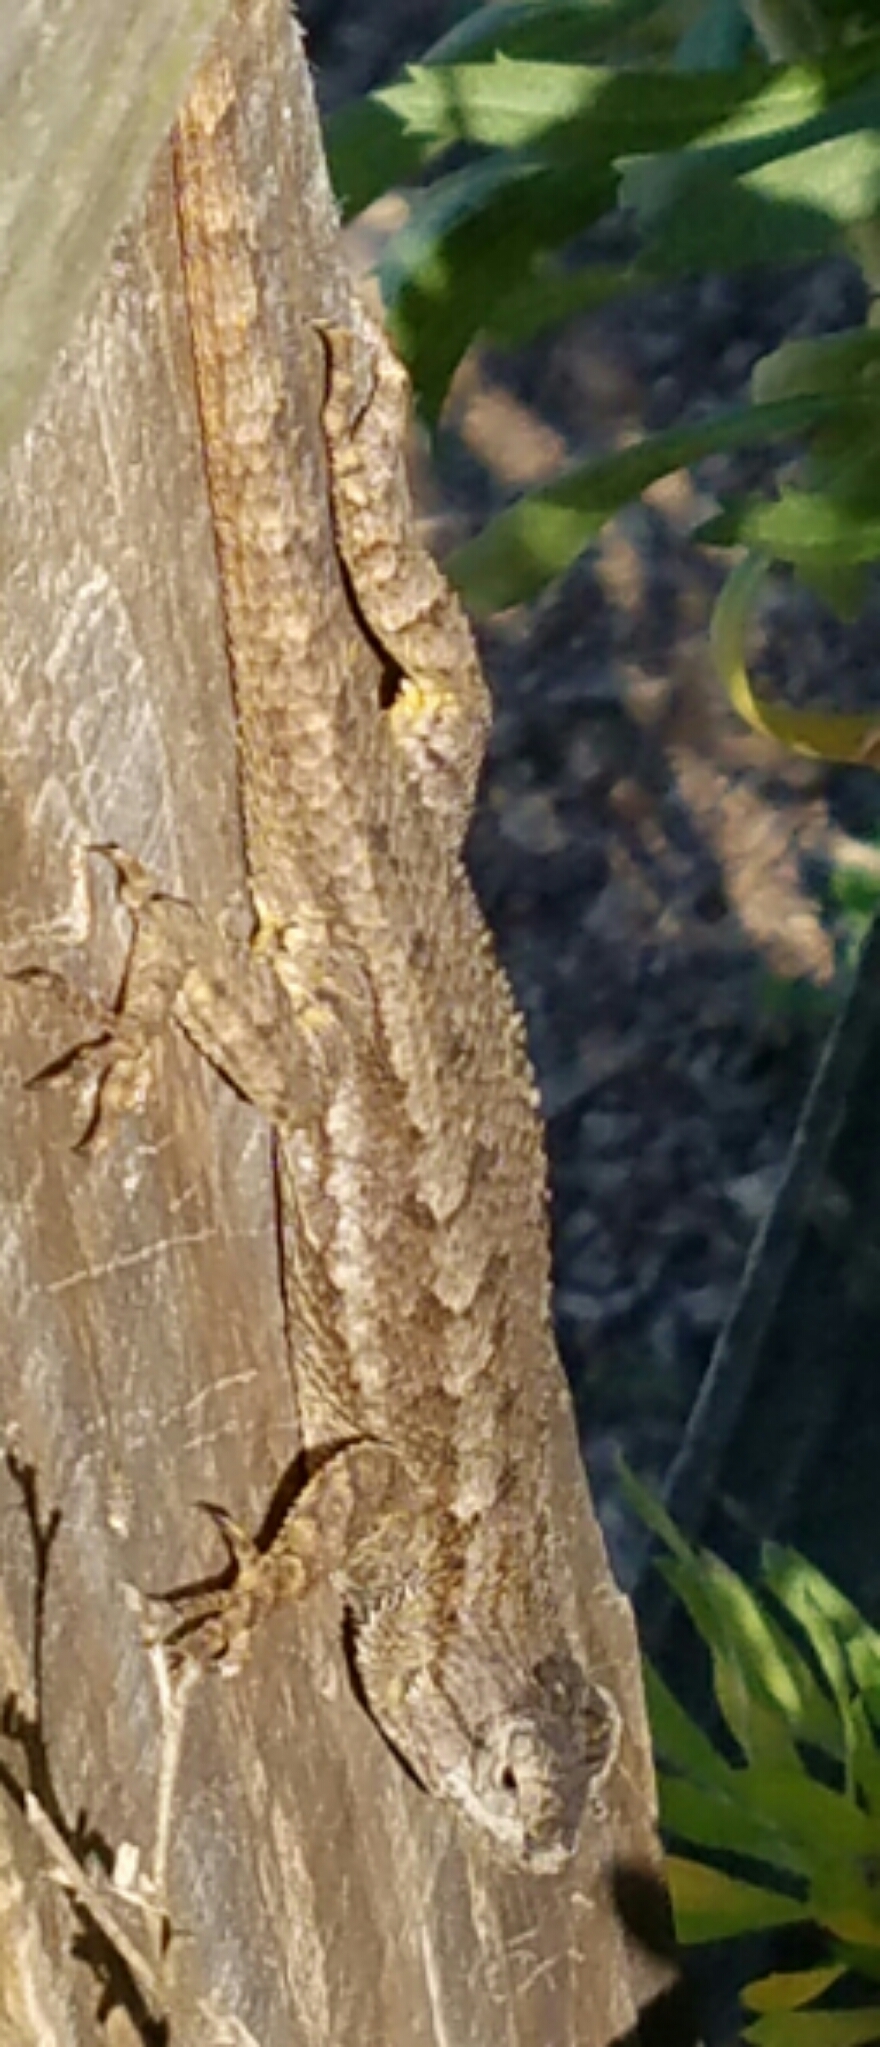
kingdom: Animalia
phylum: Chordata
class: Squamata
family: Phrynosomatidae
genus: Sceloporus
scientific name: Sceloporus occidentalis
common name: Western fence lizard
